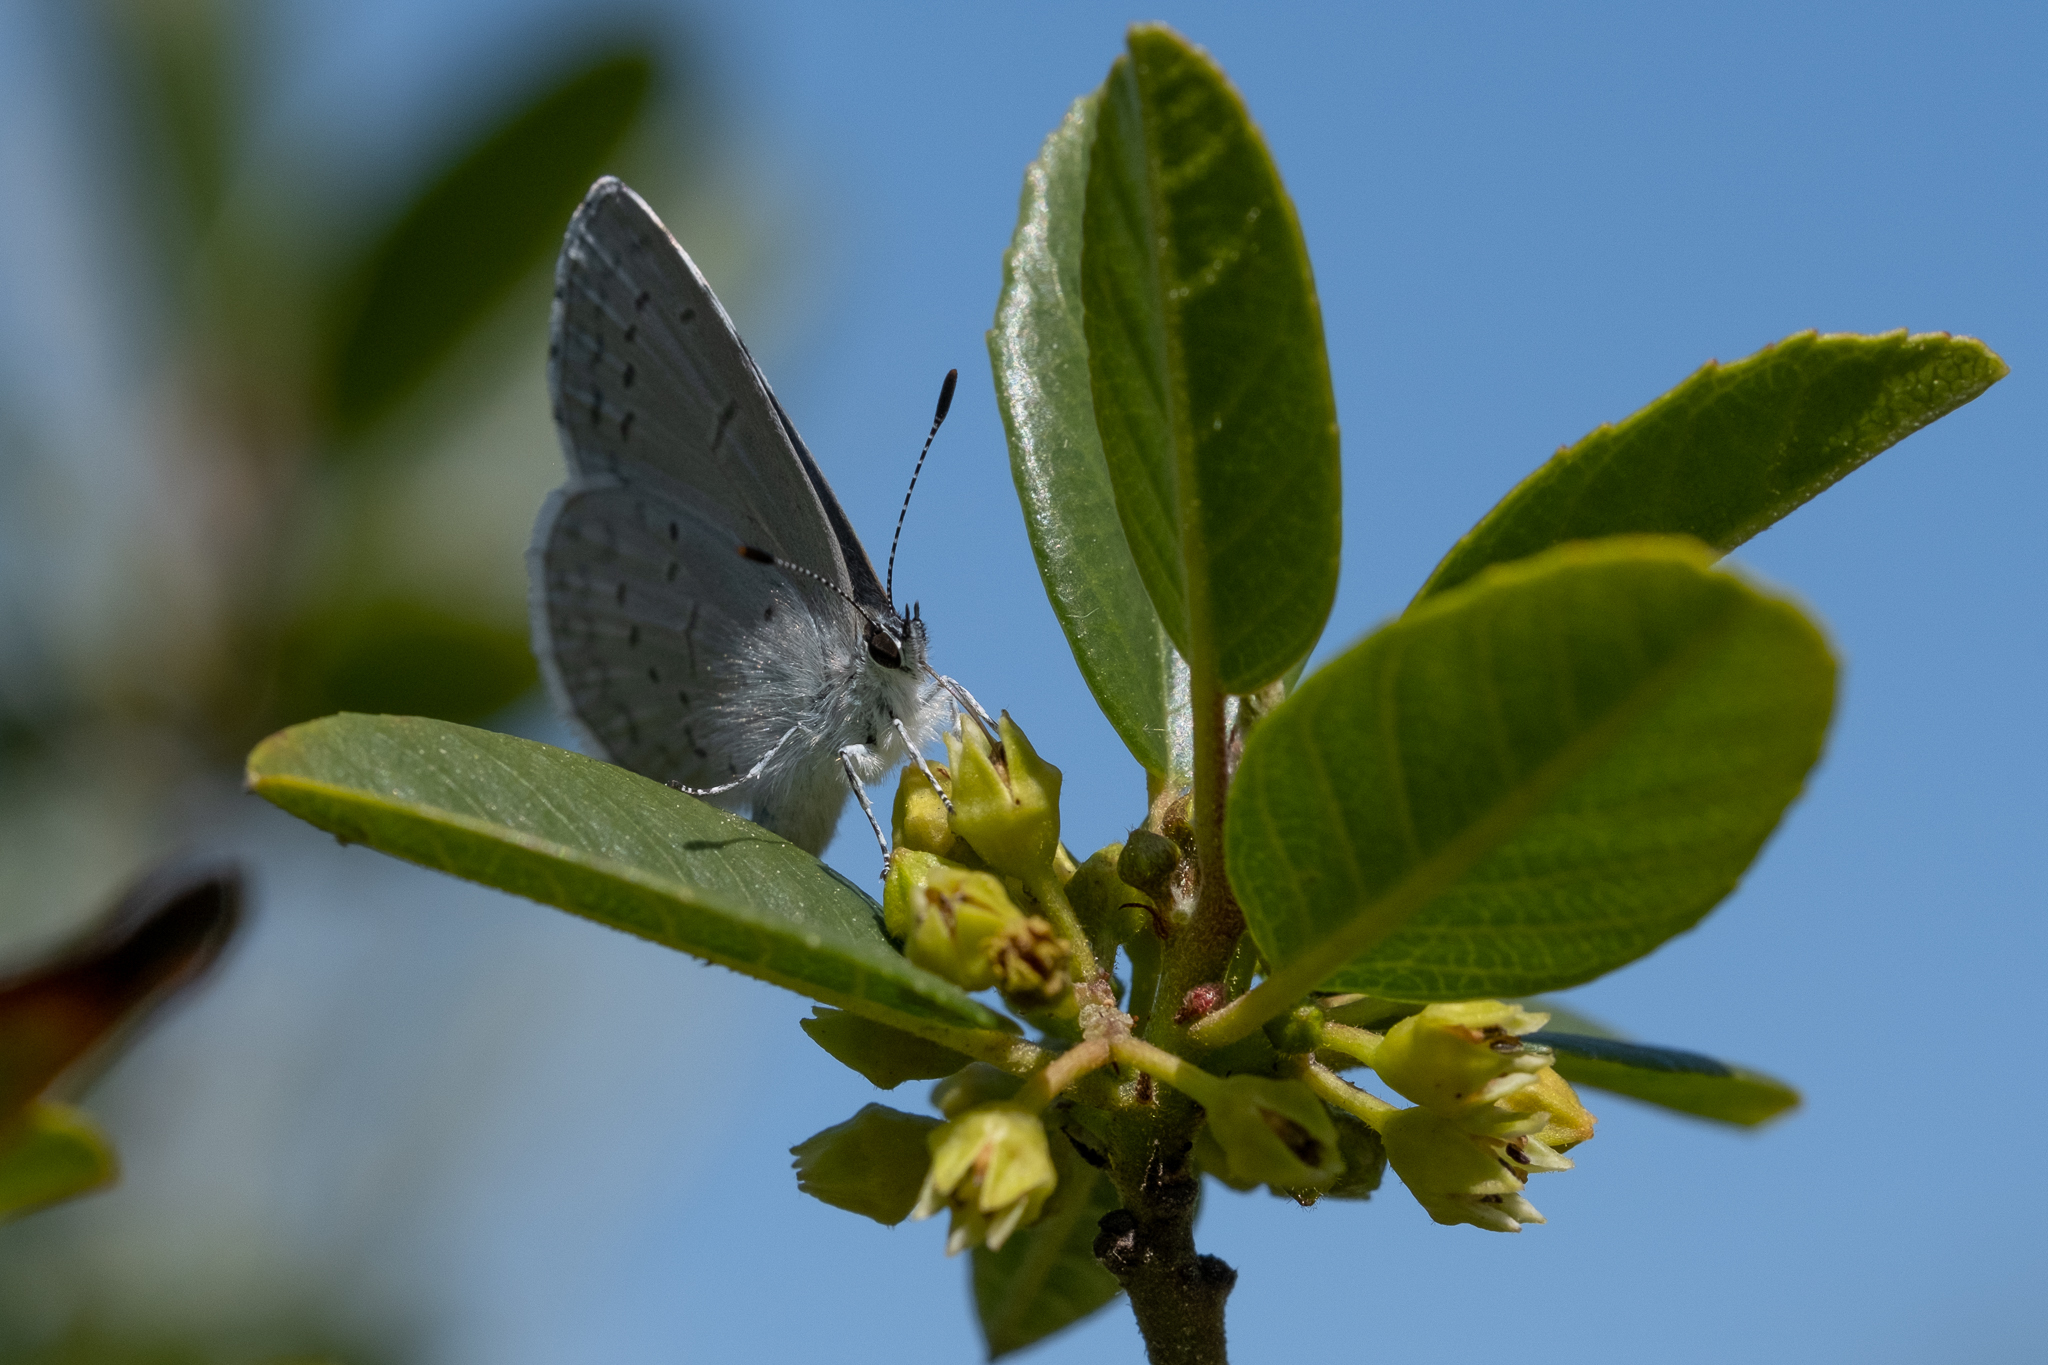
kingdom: Animalia
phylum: Arthropoda
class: Insecta
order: Lepidoptera
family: Lycaenidae
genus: Celastrina
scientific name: Celastrina ladon
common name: Spring azure
